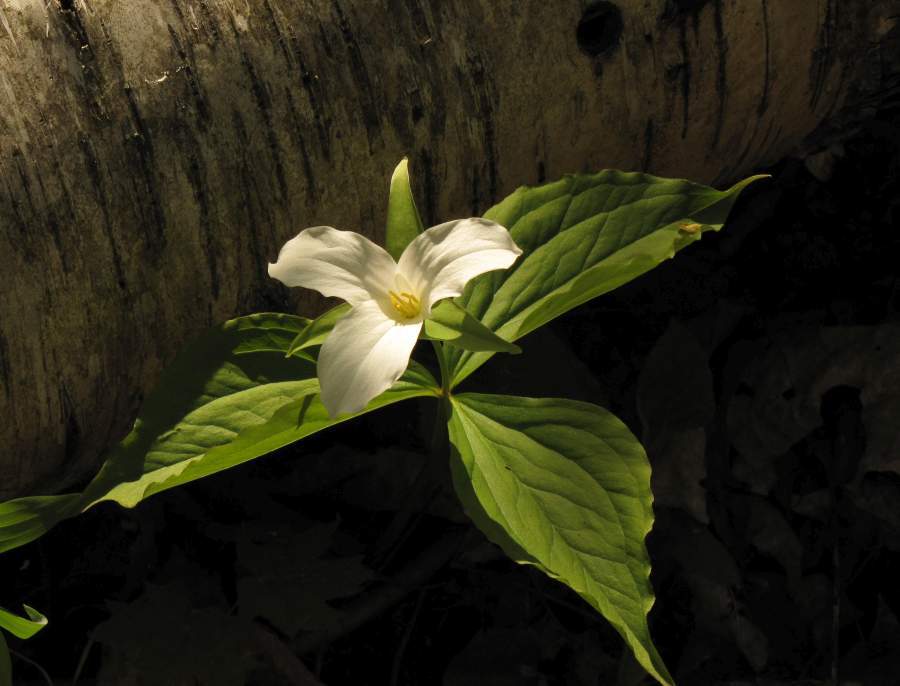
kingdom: Plantae
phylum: Tracheophyta
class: Liliopsida
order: Liliales
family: Melanthiaceae
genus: Trillium
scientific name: Trillium grandiflorum
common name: Great white trillium
